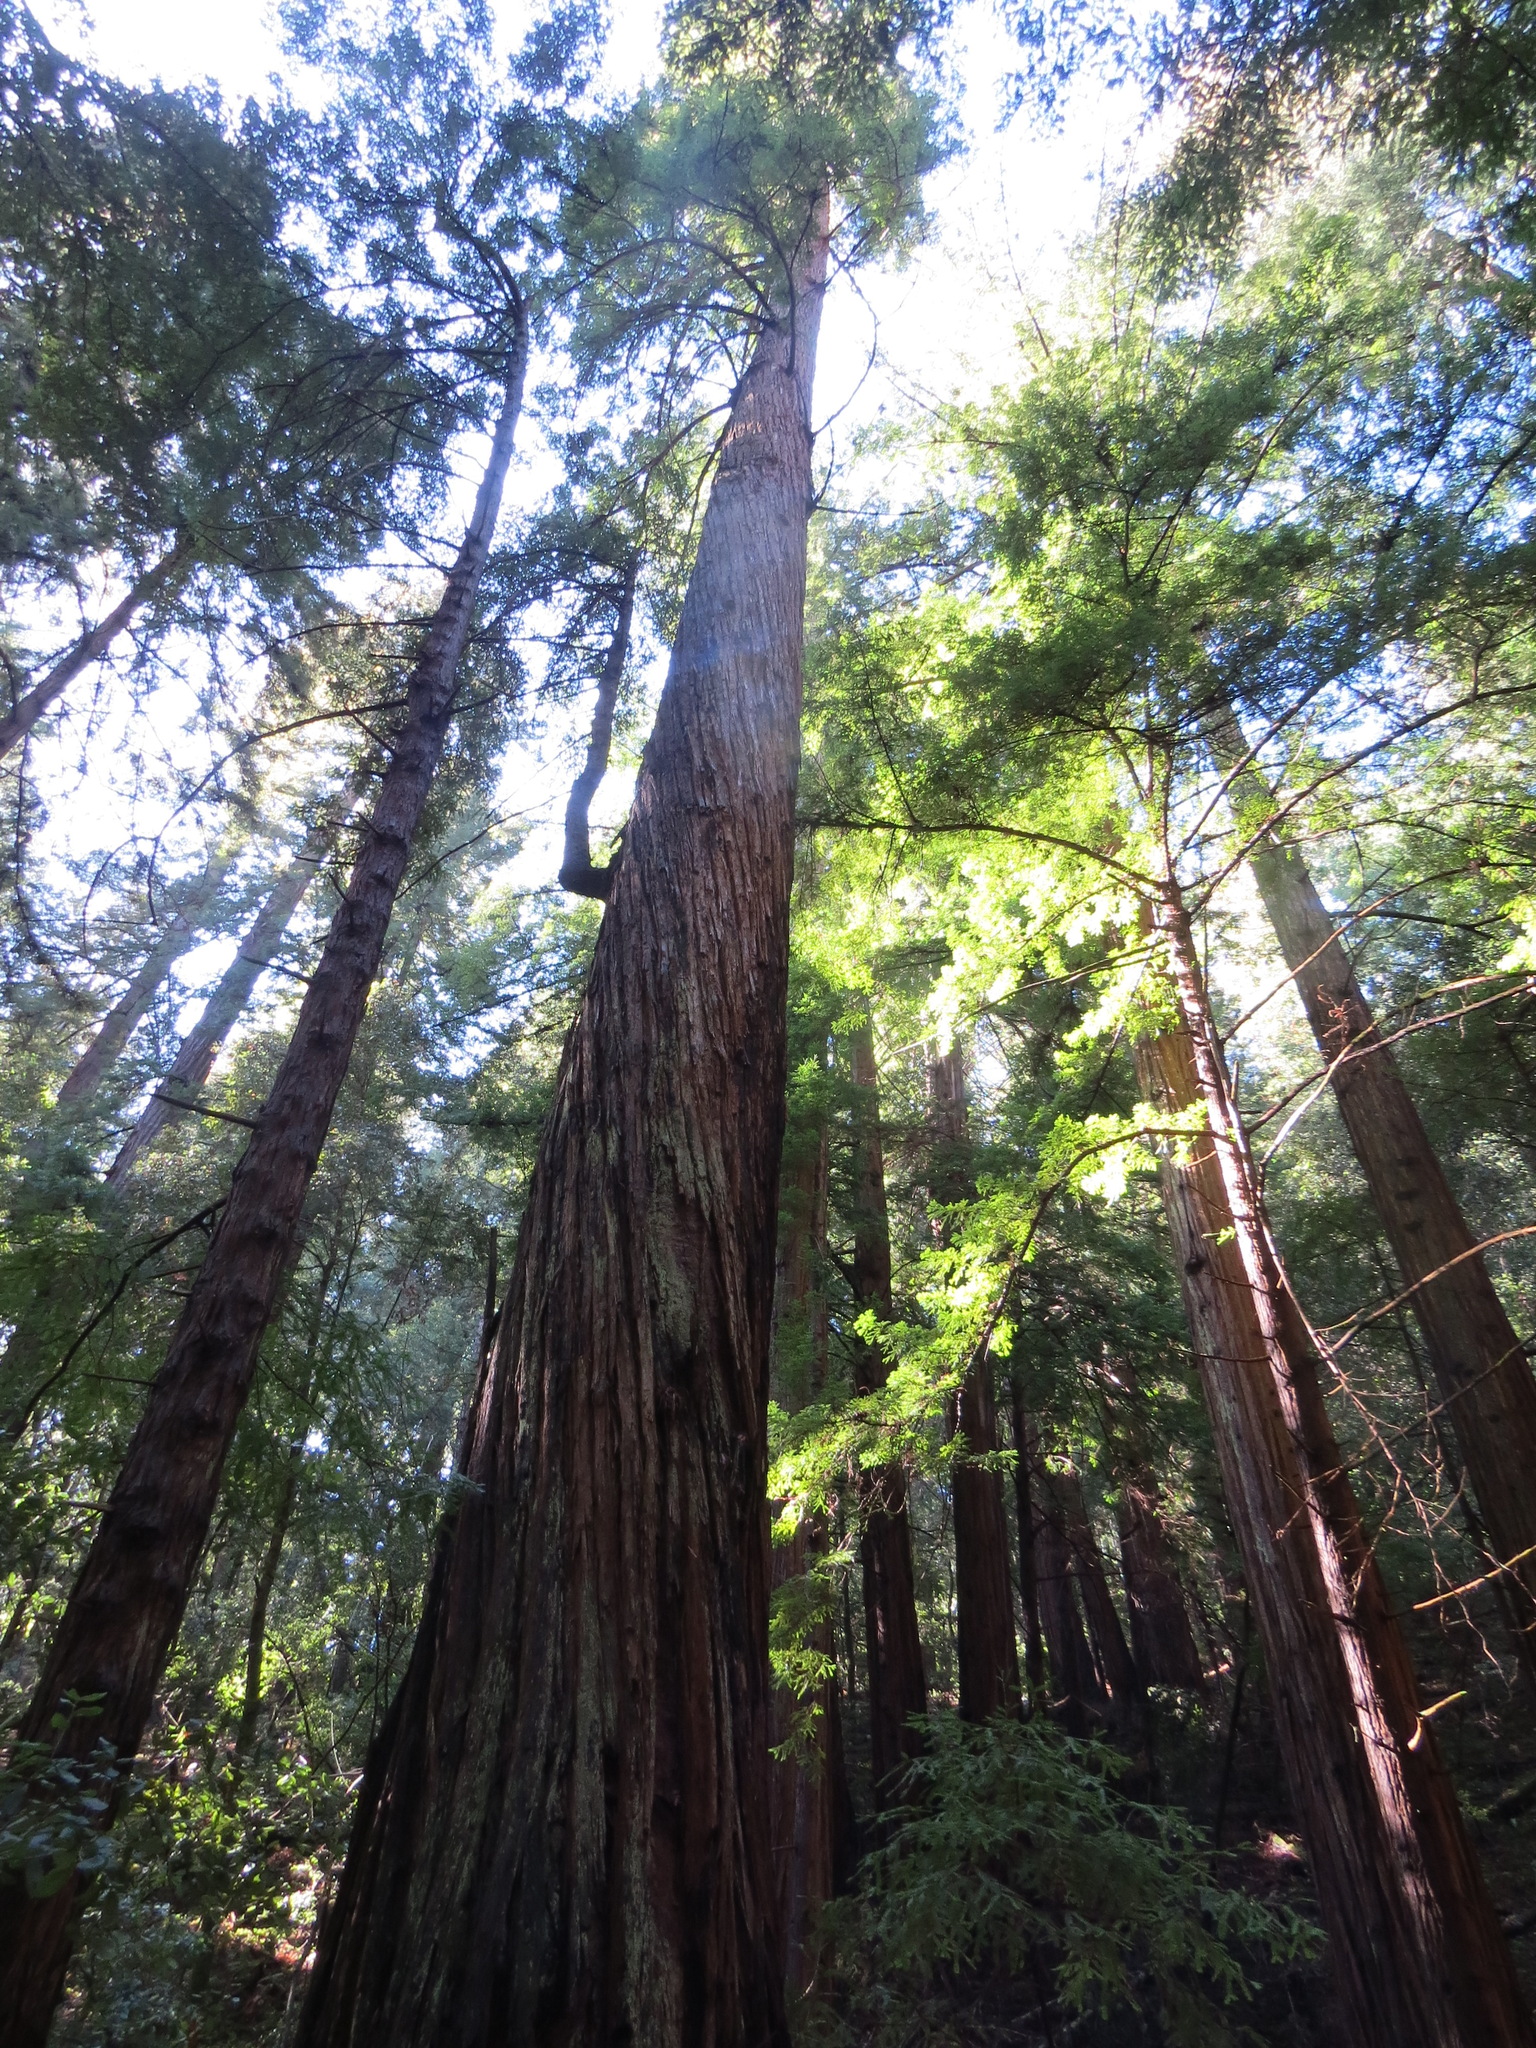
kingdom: Plantae
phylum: Tracheophyta
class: Pinopsida
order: Pinales
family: Cupressaceae
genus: Sequoia
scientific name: Sequoia sempervirens
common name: Coast redwood
